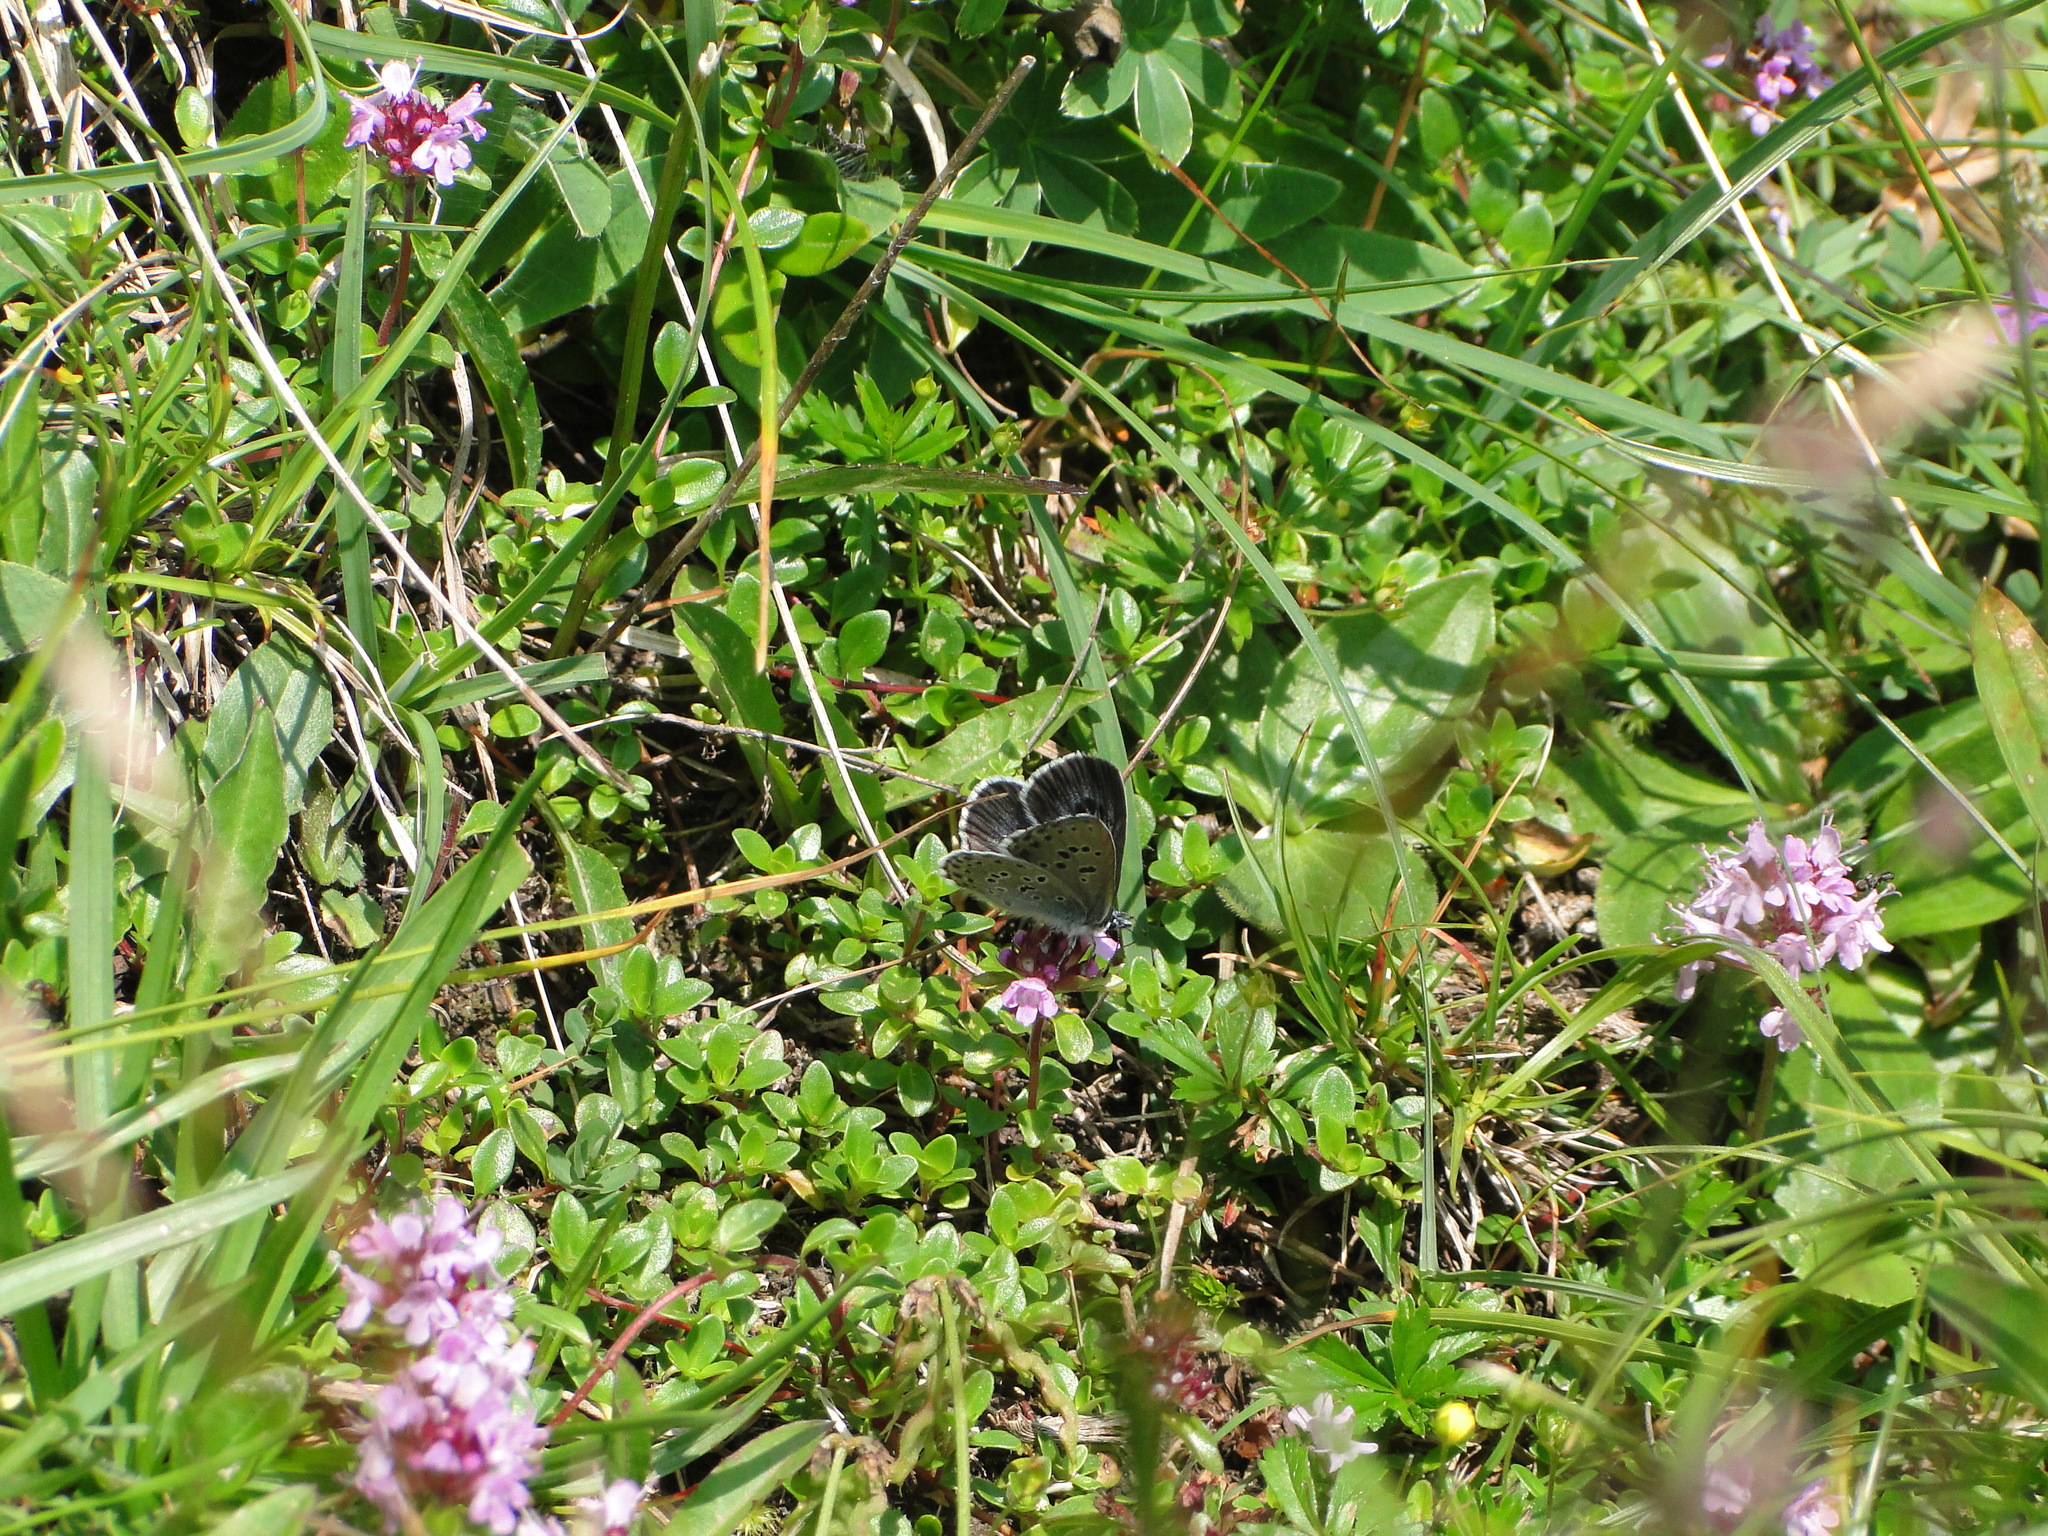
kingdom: Animalia
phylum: Arthropoda
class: Insecta
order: Lepidoptera
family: Lycaenidae
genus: Maculinea
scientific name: Maculinea arion
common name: Large blue
